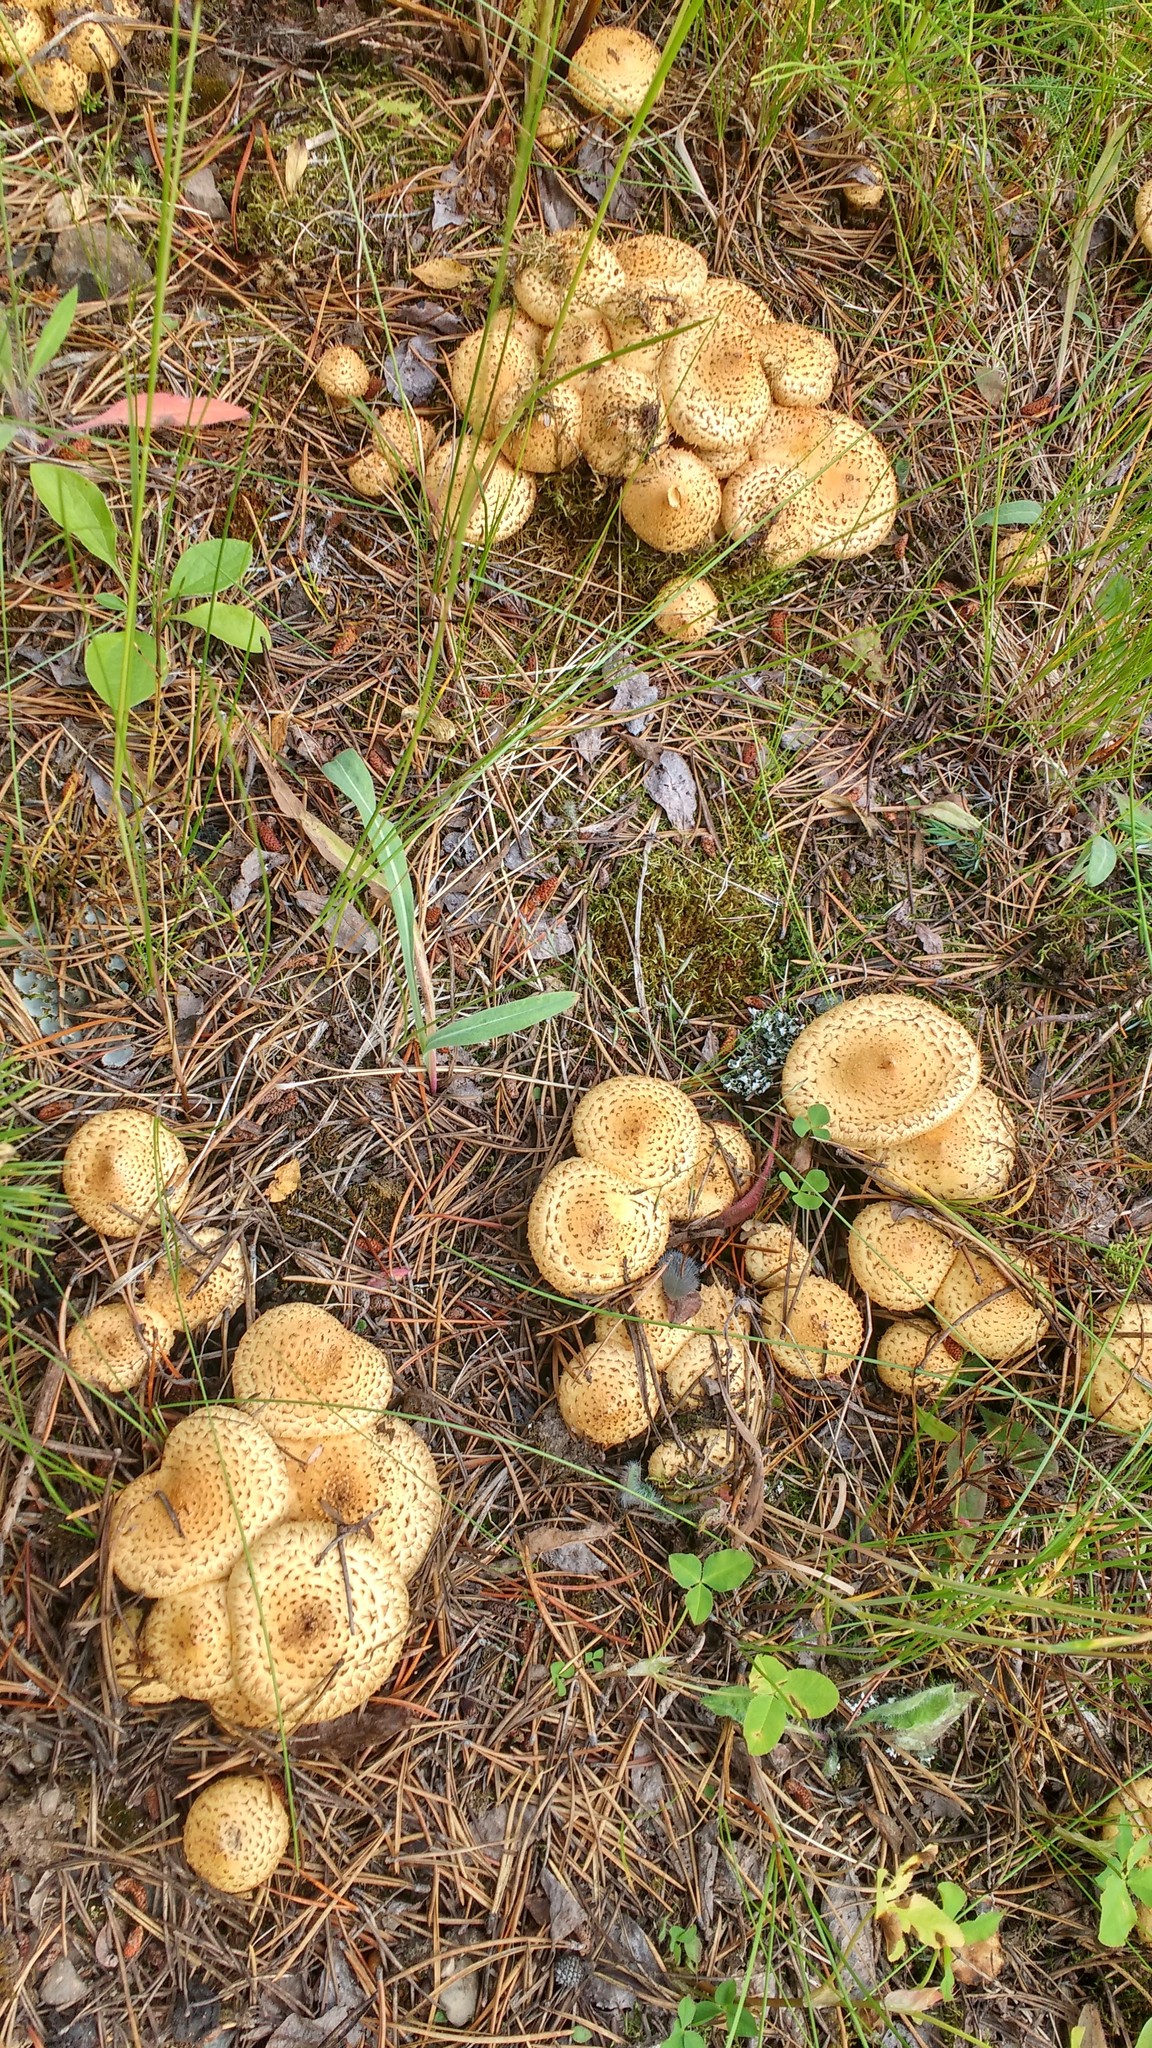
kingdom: Fungi
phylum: Basidiomycota
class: Agaricomycetes
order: Agaricales
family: Strophariaceae
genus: Pholiota
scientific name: Pholiota squarrosa
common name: Shaggy pholiota
